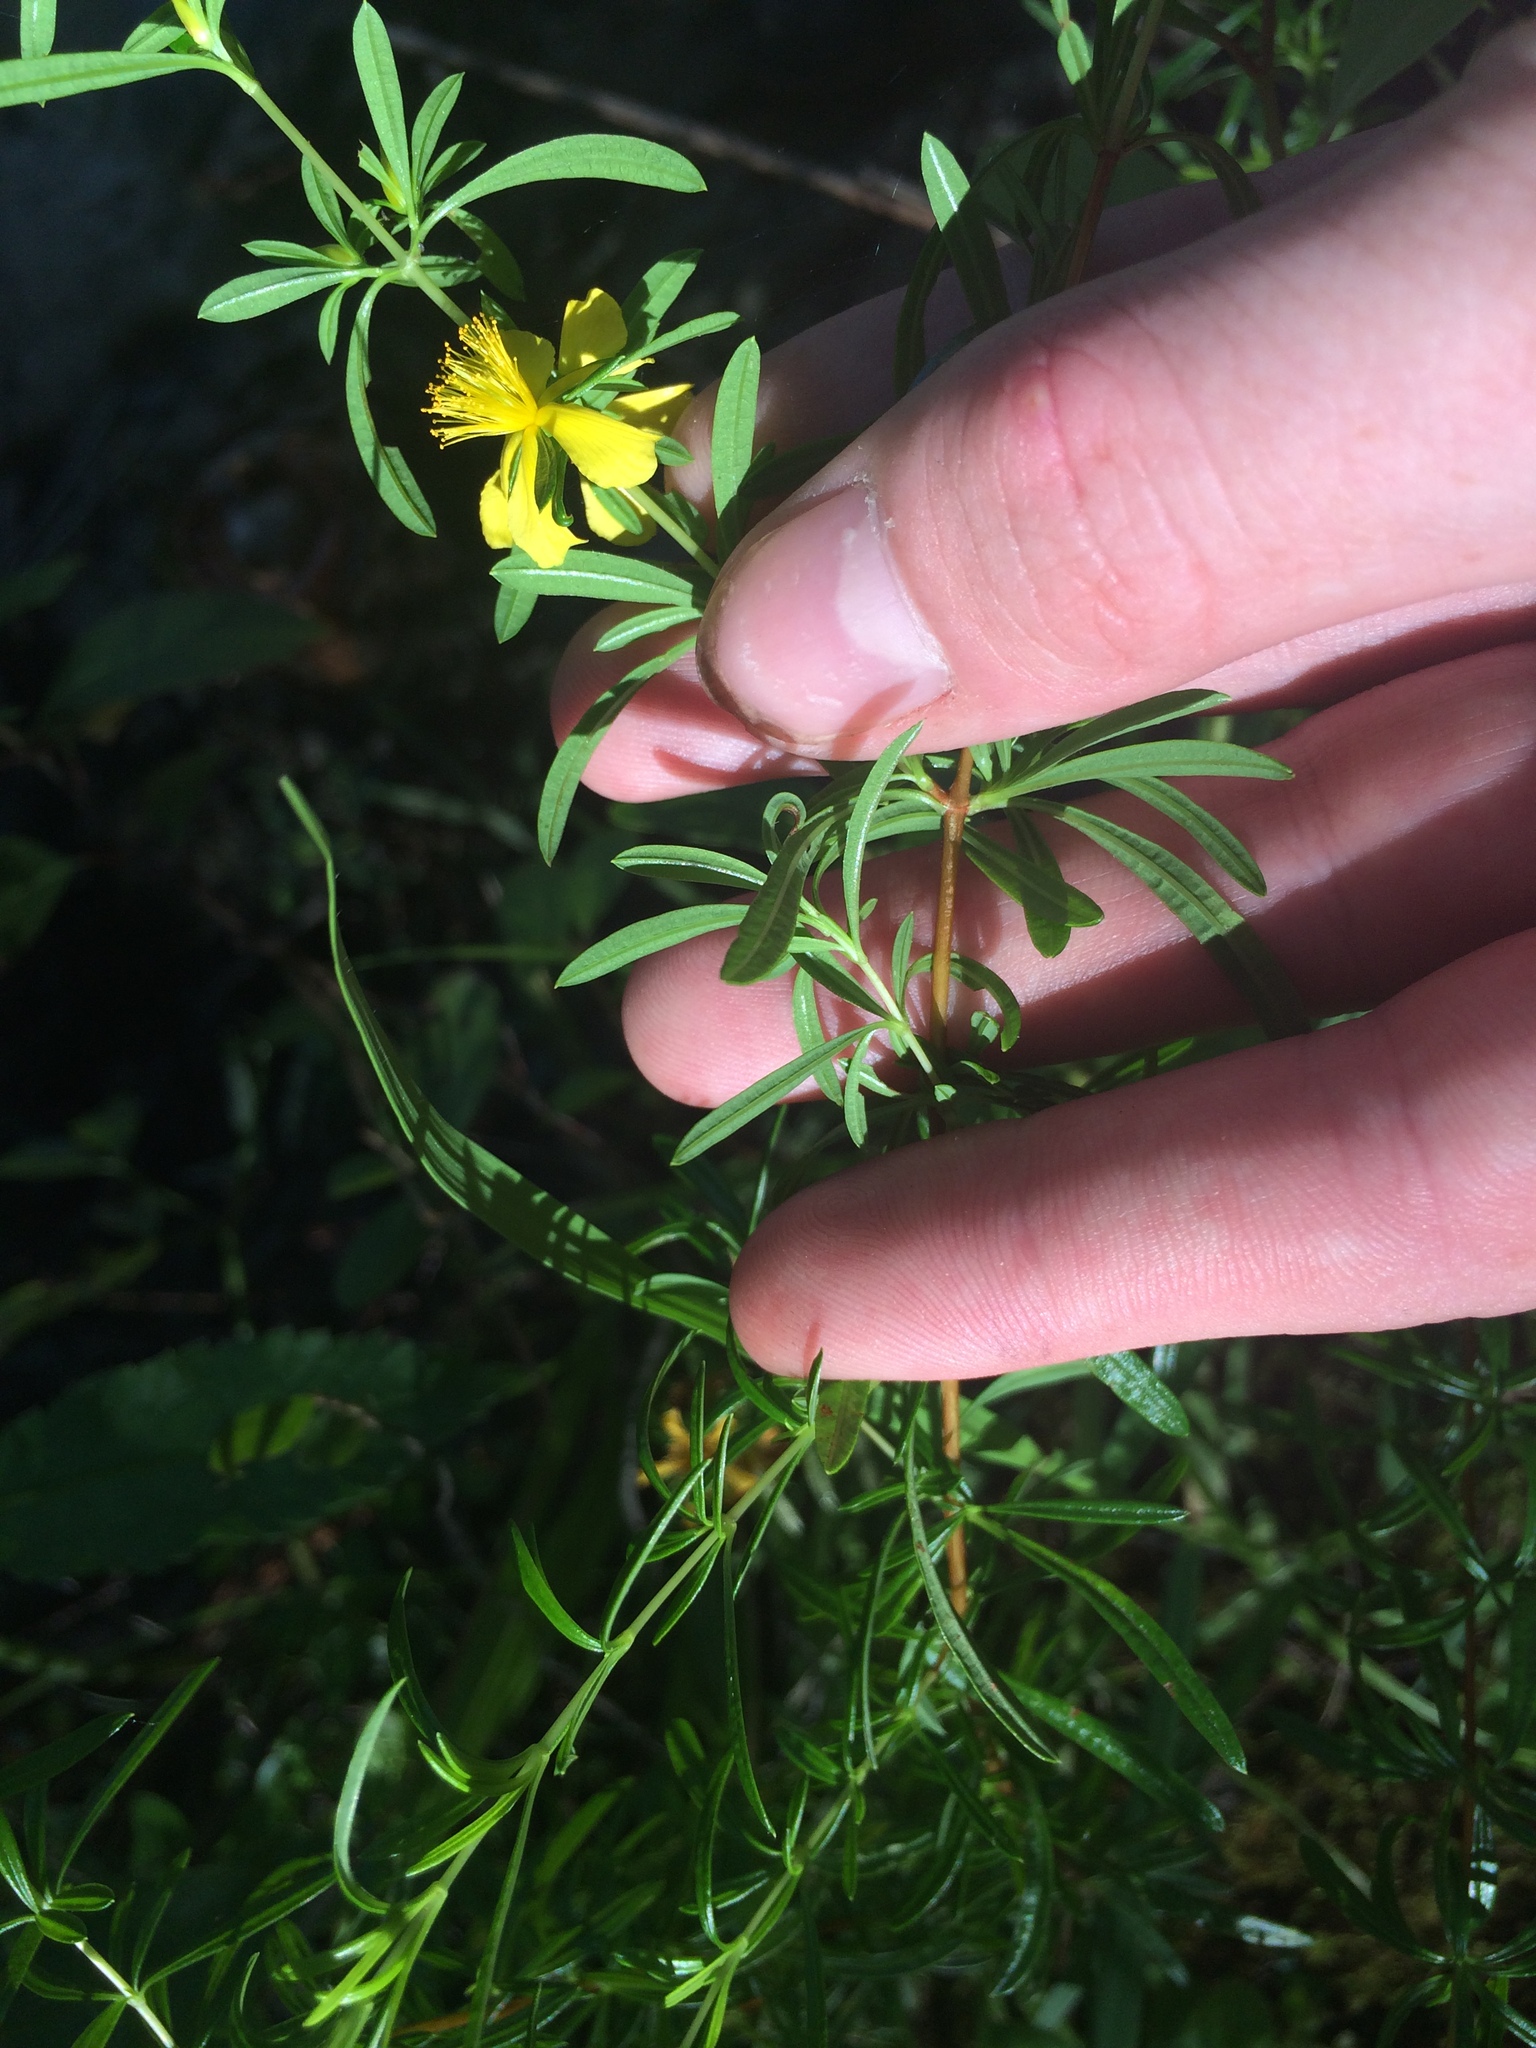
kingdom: Plantae
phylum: Tracheophyta
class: Magnoliopsida
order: Malpighiales
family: Hypericaceae
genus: Hypericum
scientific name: Hypericum galioides
